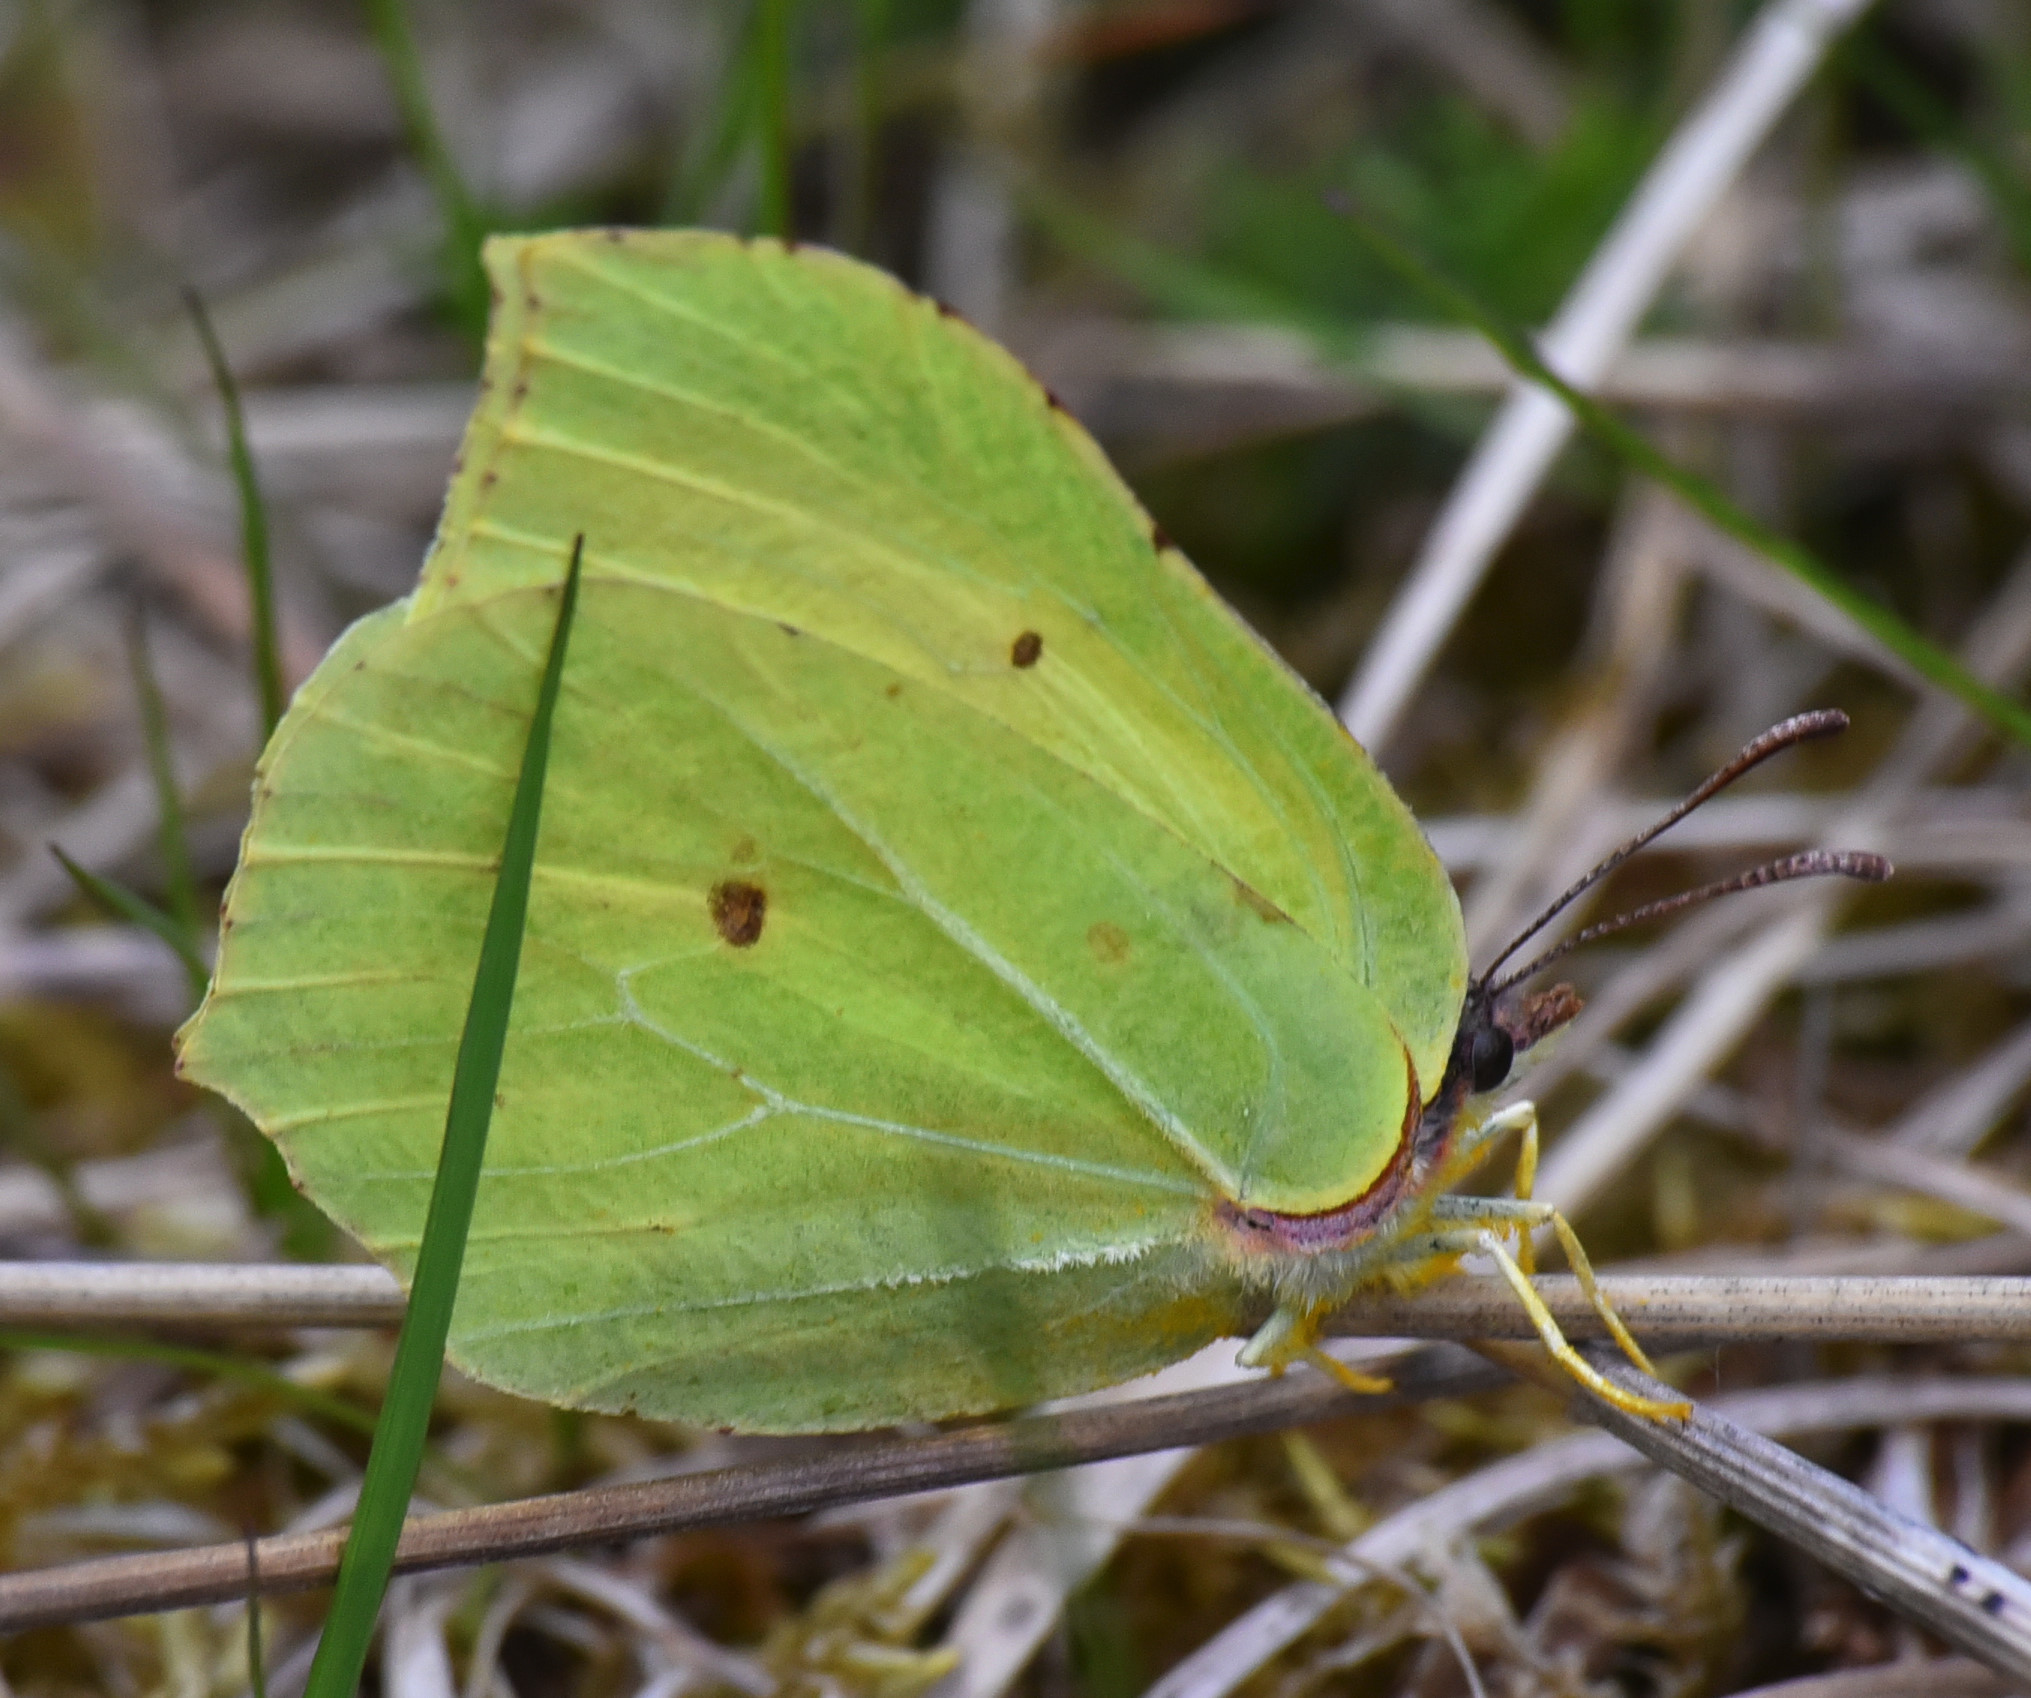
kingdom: Animalia
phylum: Arthropoda
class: Insecta
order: Lepidoptera
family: Pieridae
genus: Gonepteryx
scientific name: Gonepteryx rhamni
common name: Brimstone
